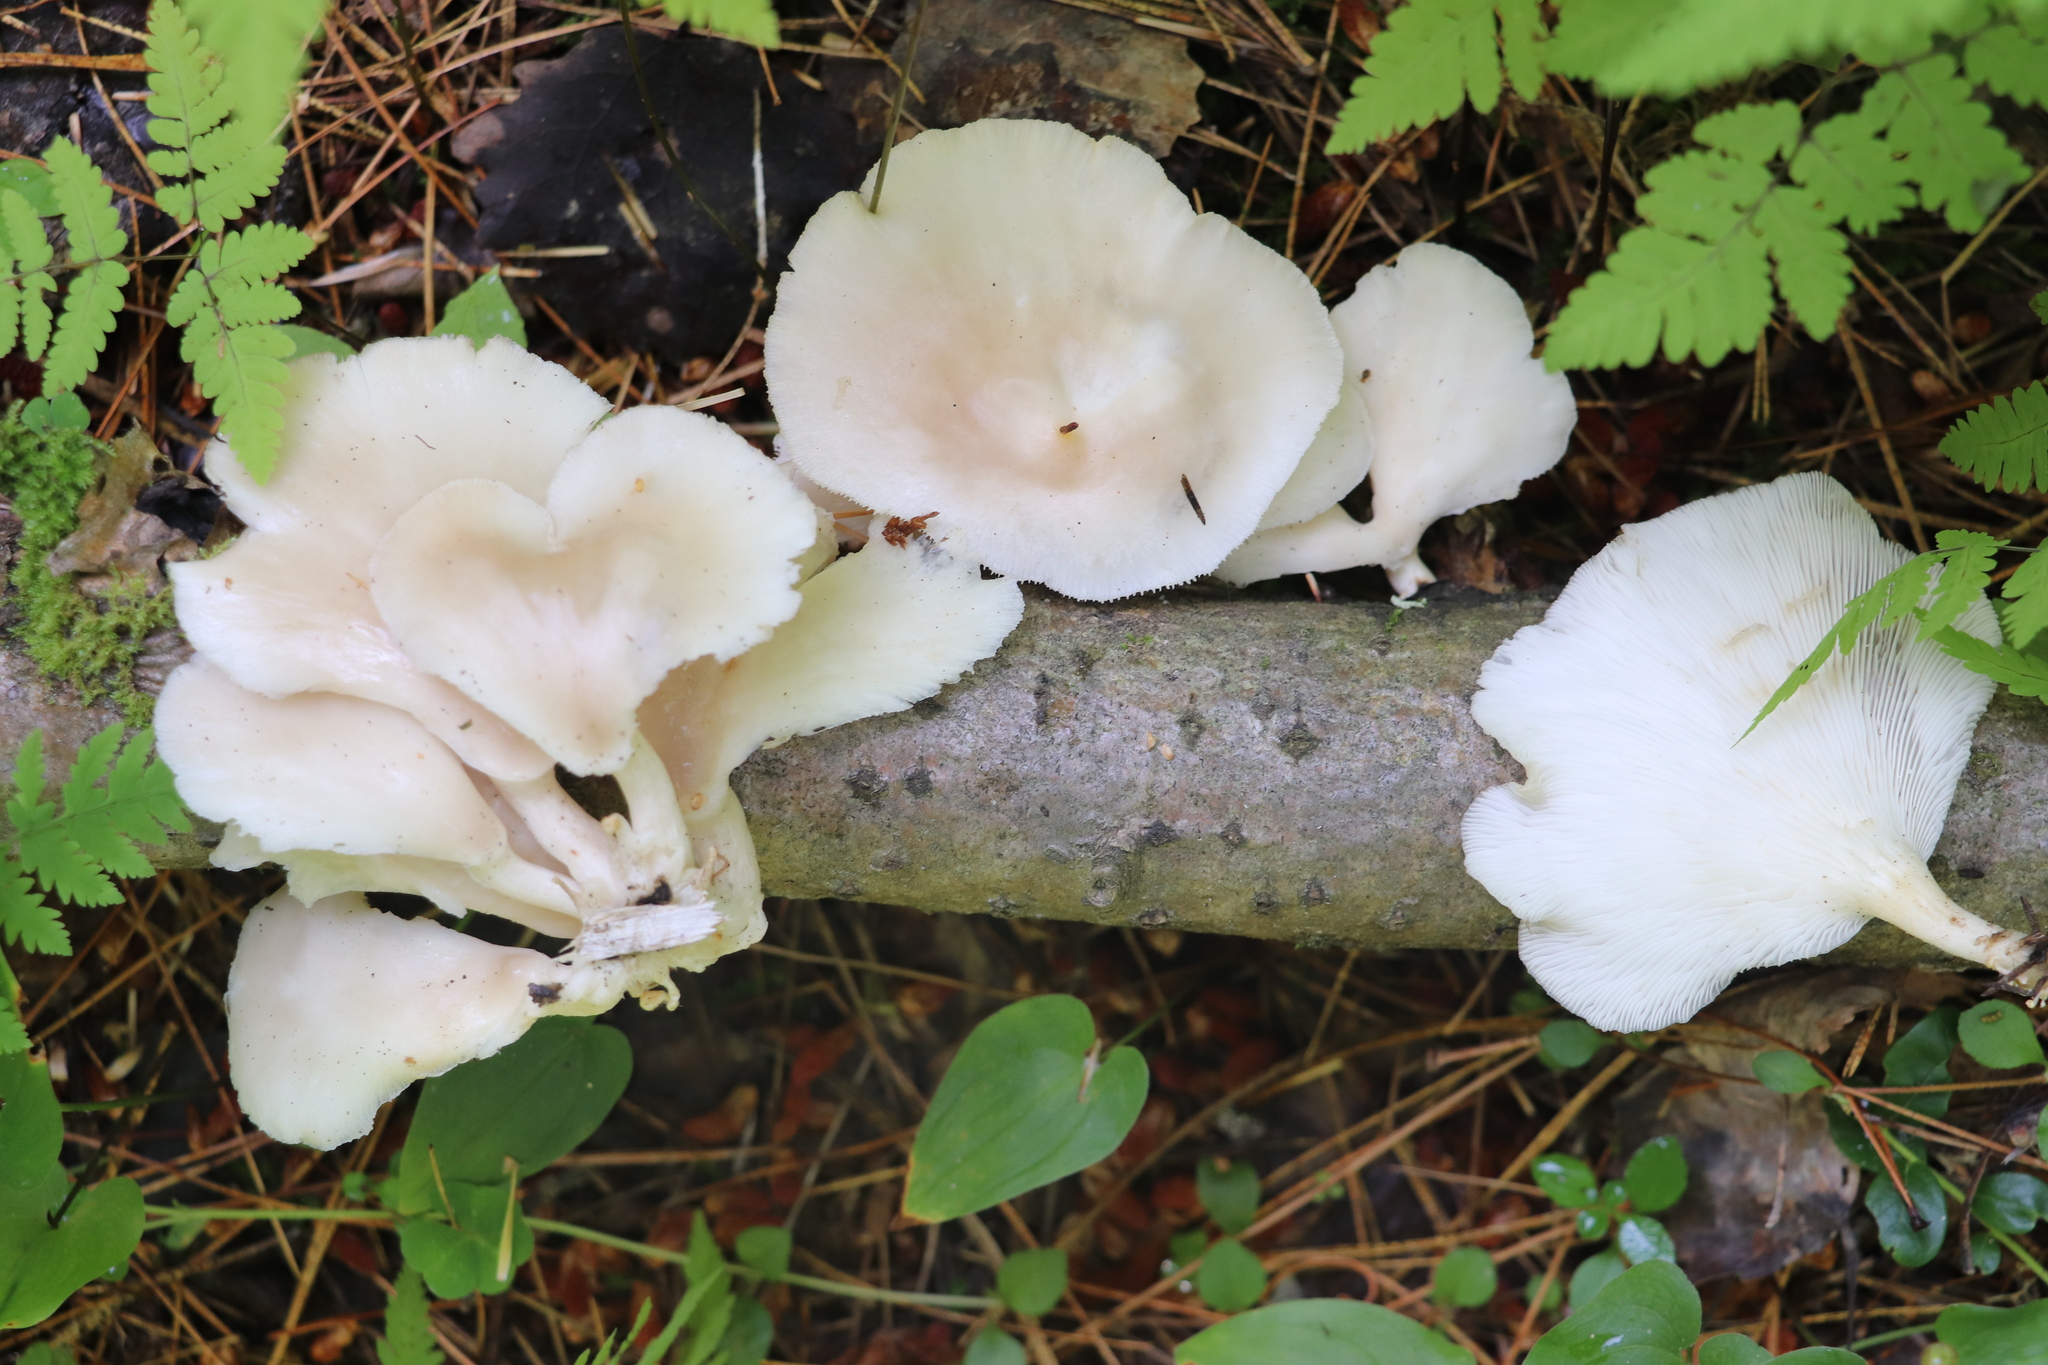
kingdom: Fungi
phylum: Basidiomycota
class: Agaricomycetes
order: Agaricales
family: Pleurotaceae
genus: Pleurotus
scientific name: Pleurotus pulmonarius
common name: Pale oyster
